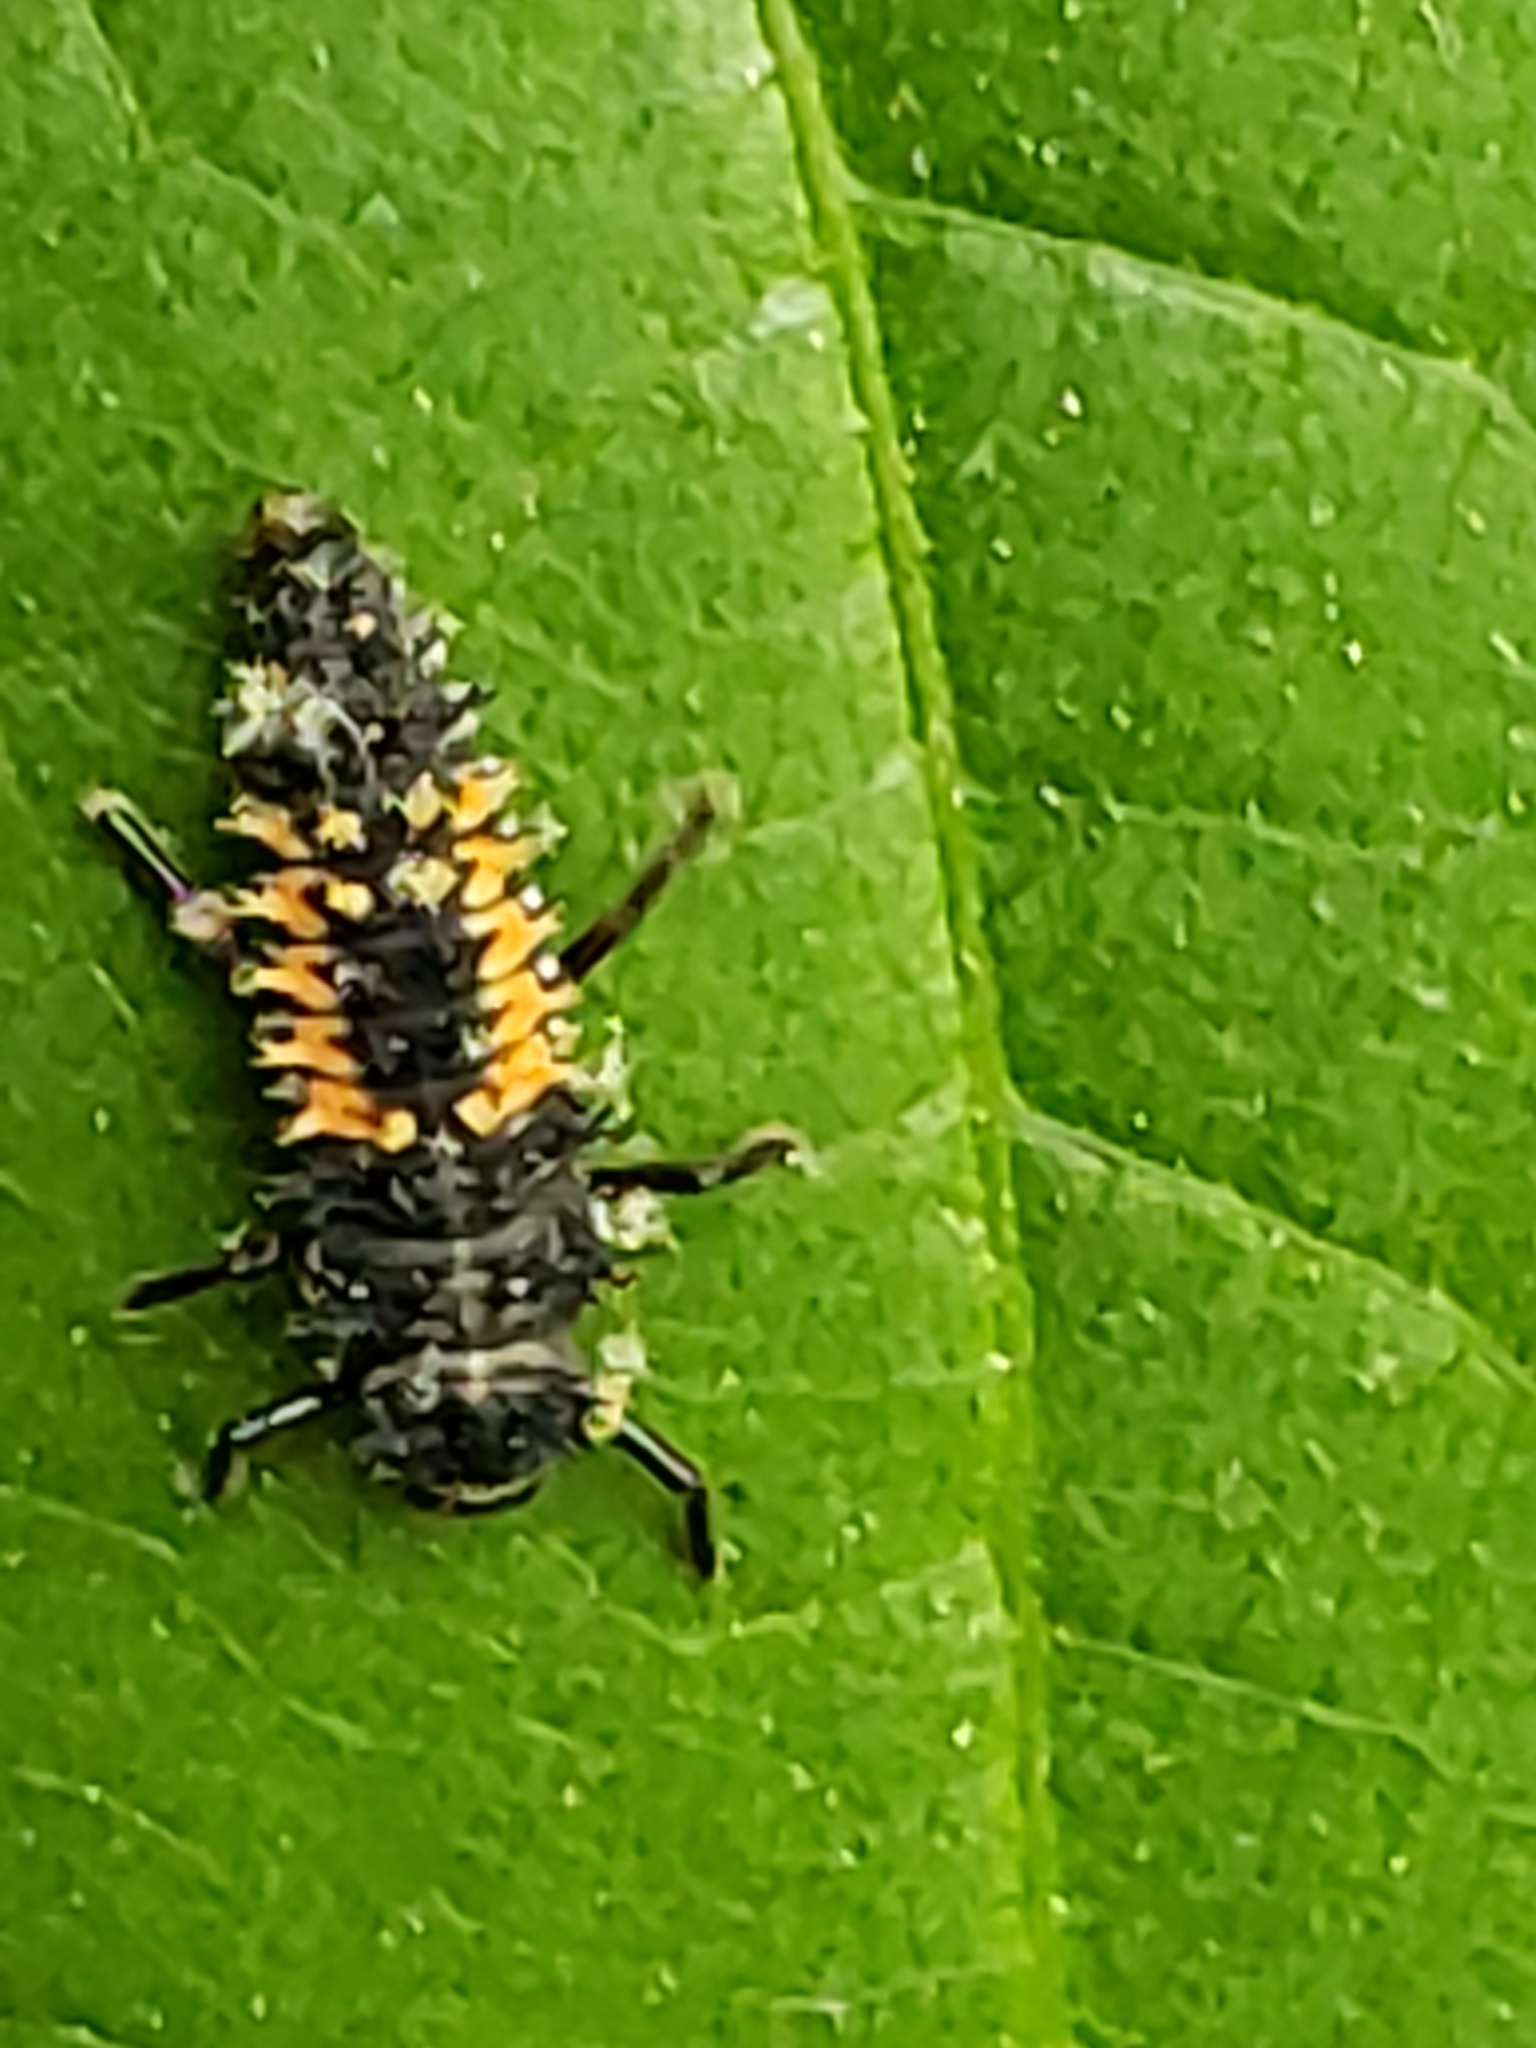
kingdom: Animalia
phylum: Arthropoda
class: Insecta
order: Coleoptera
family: Coccinellidae
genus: Harmonia
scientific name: Harmonia axyridis
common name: Harlequin ladybird
